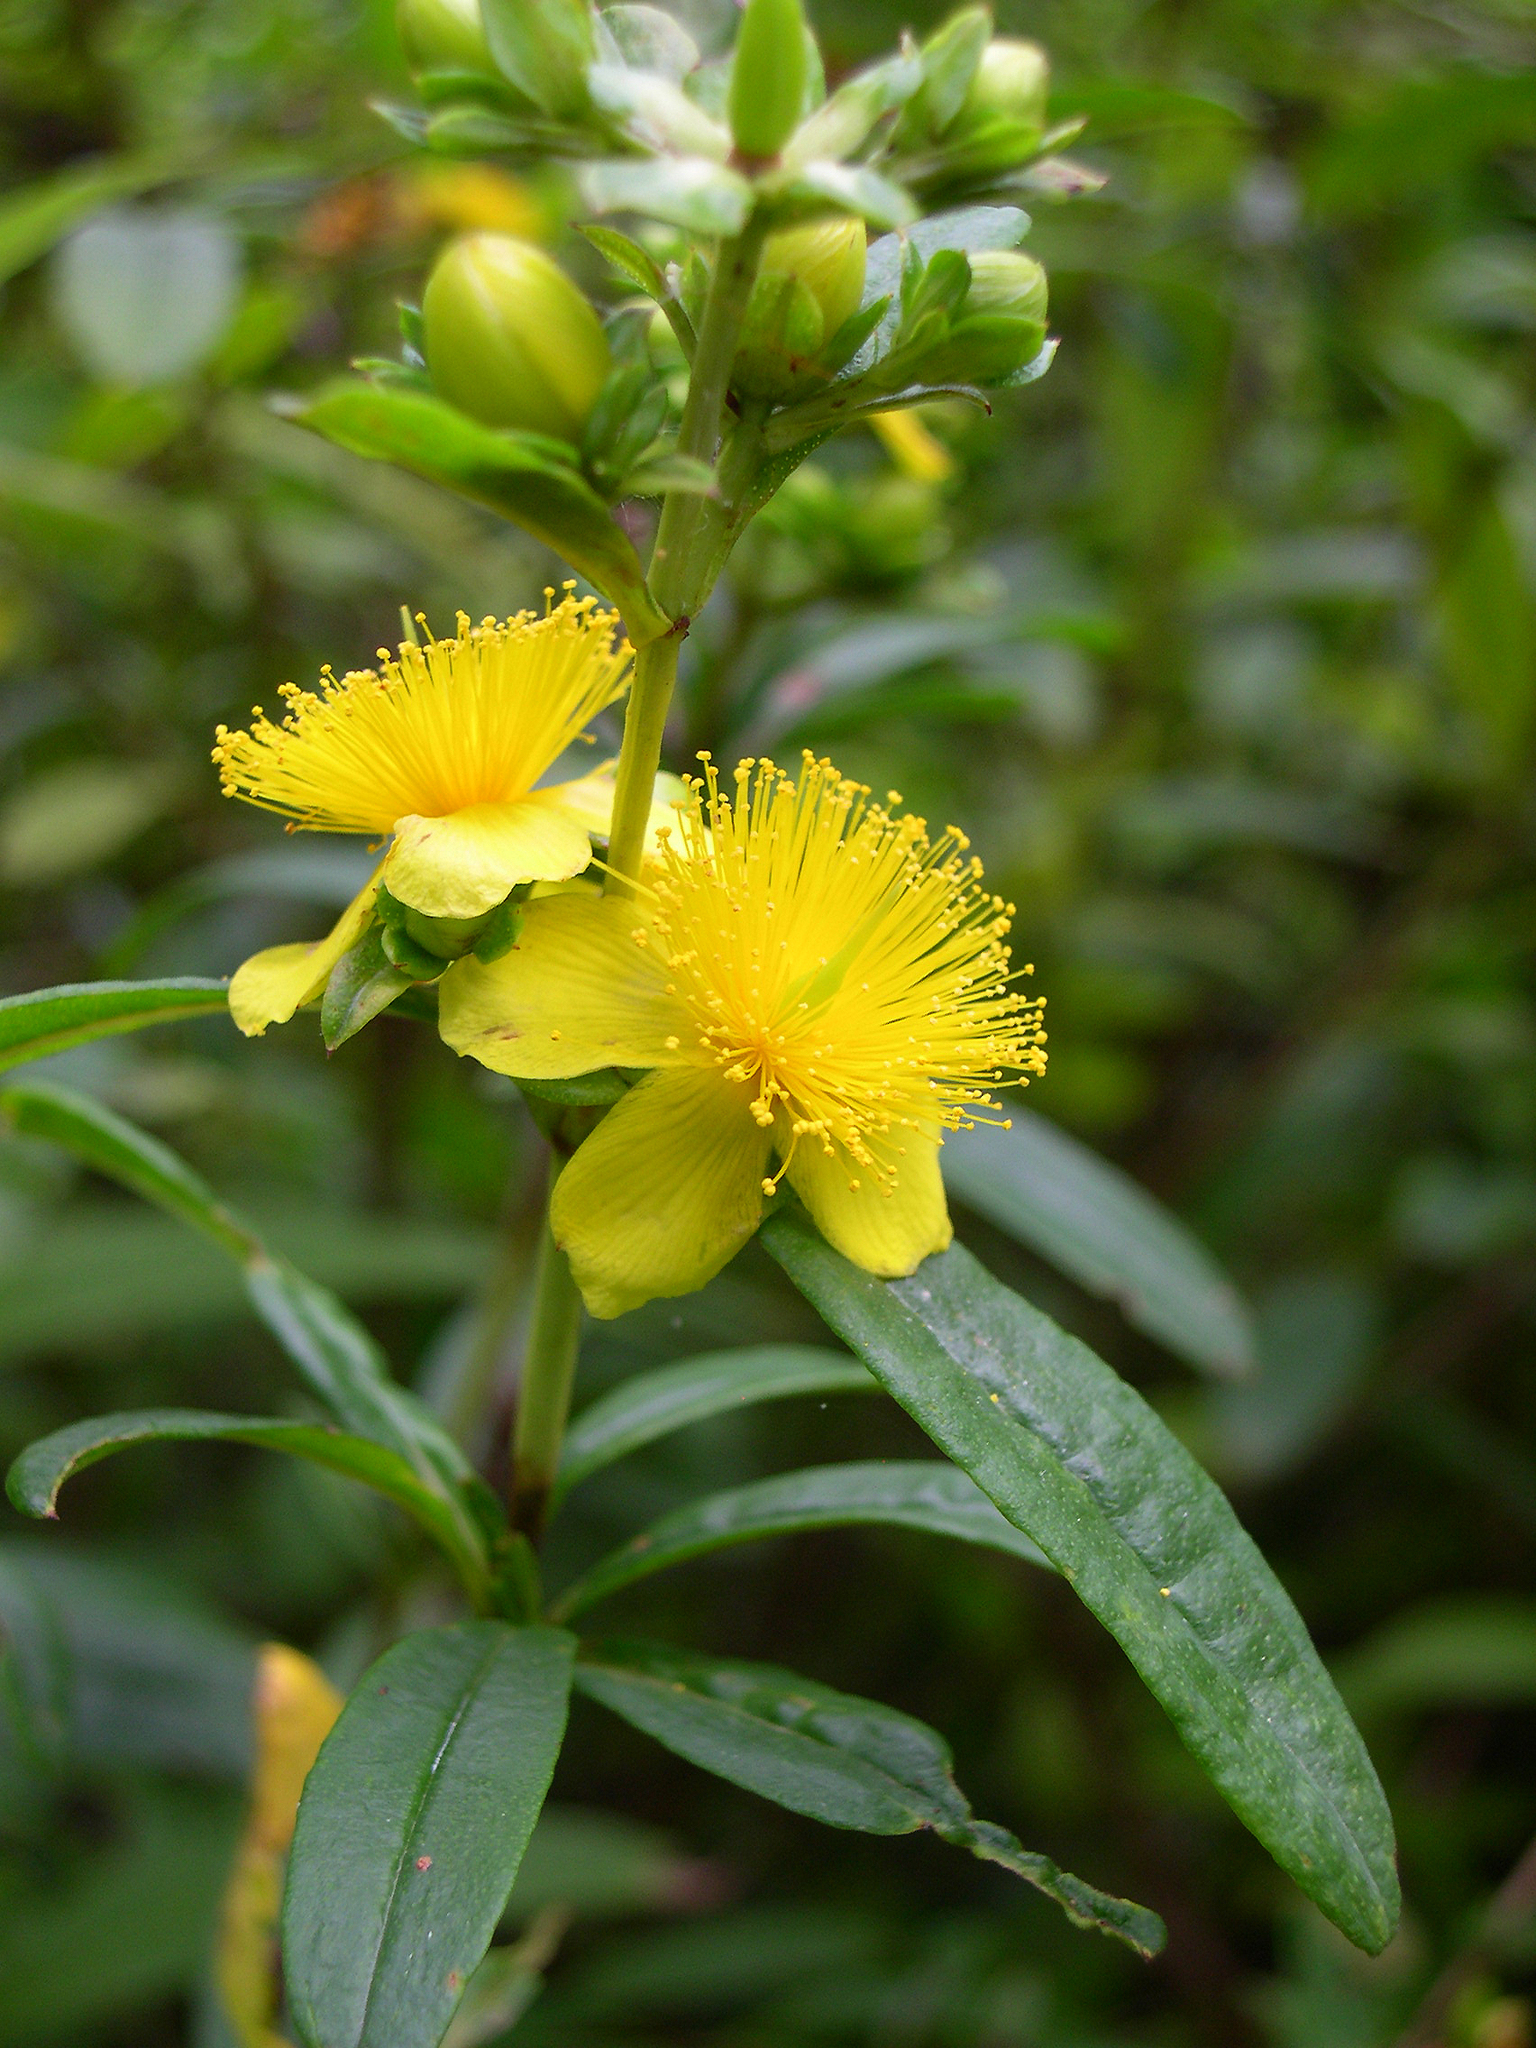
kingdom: Plantae
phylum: Tracheophyta
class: Magnoliopsida
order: Malpighiales
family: Hypericaceae
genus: Hypericum
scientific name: Hypericum prolificum
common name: Shrubby st. john's-wort
